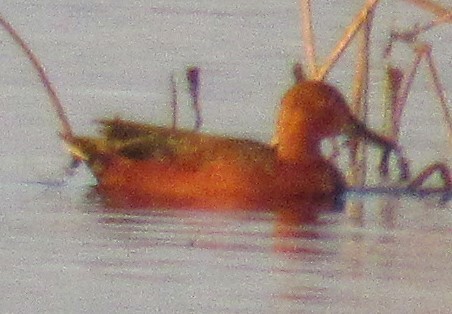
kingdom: Animalia
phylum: Chordata
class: Aves
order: Anseriformes
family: Anatidae
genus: Spatula
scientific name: Spatula cyanoptera
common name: Cinnamon teal
